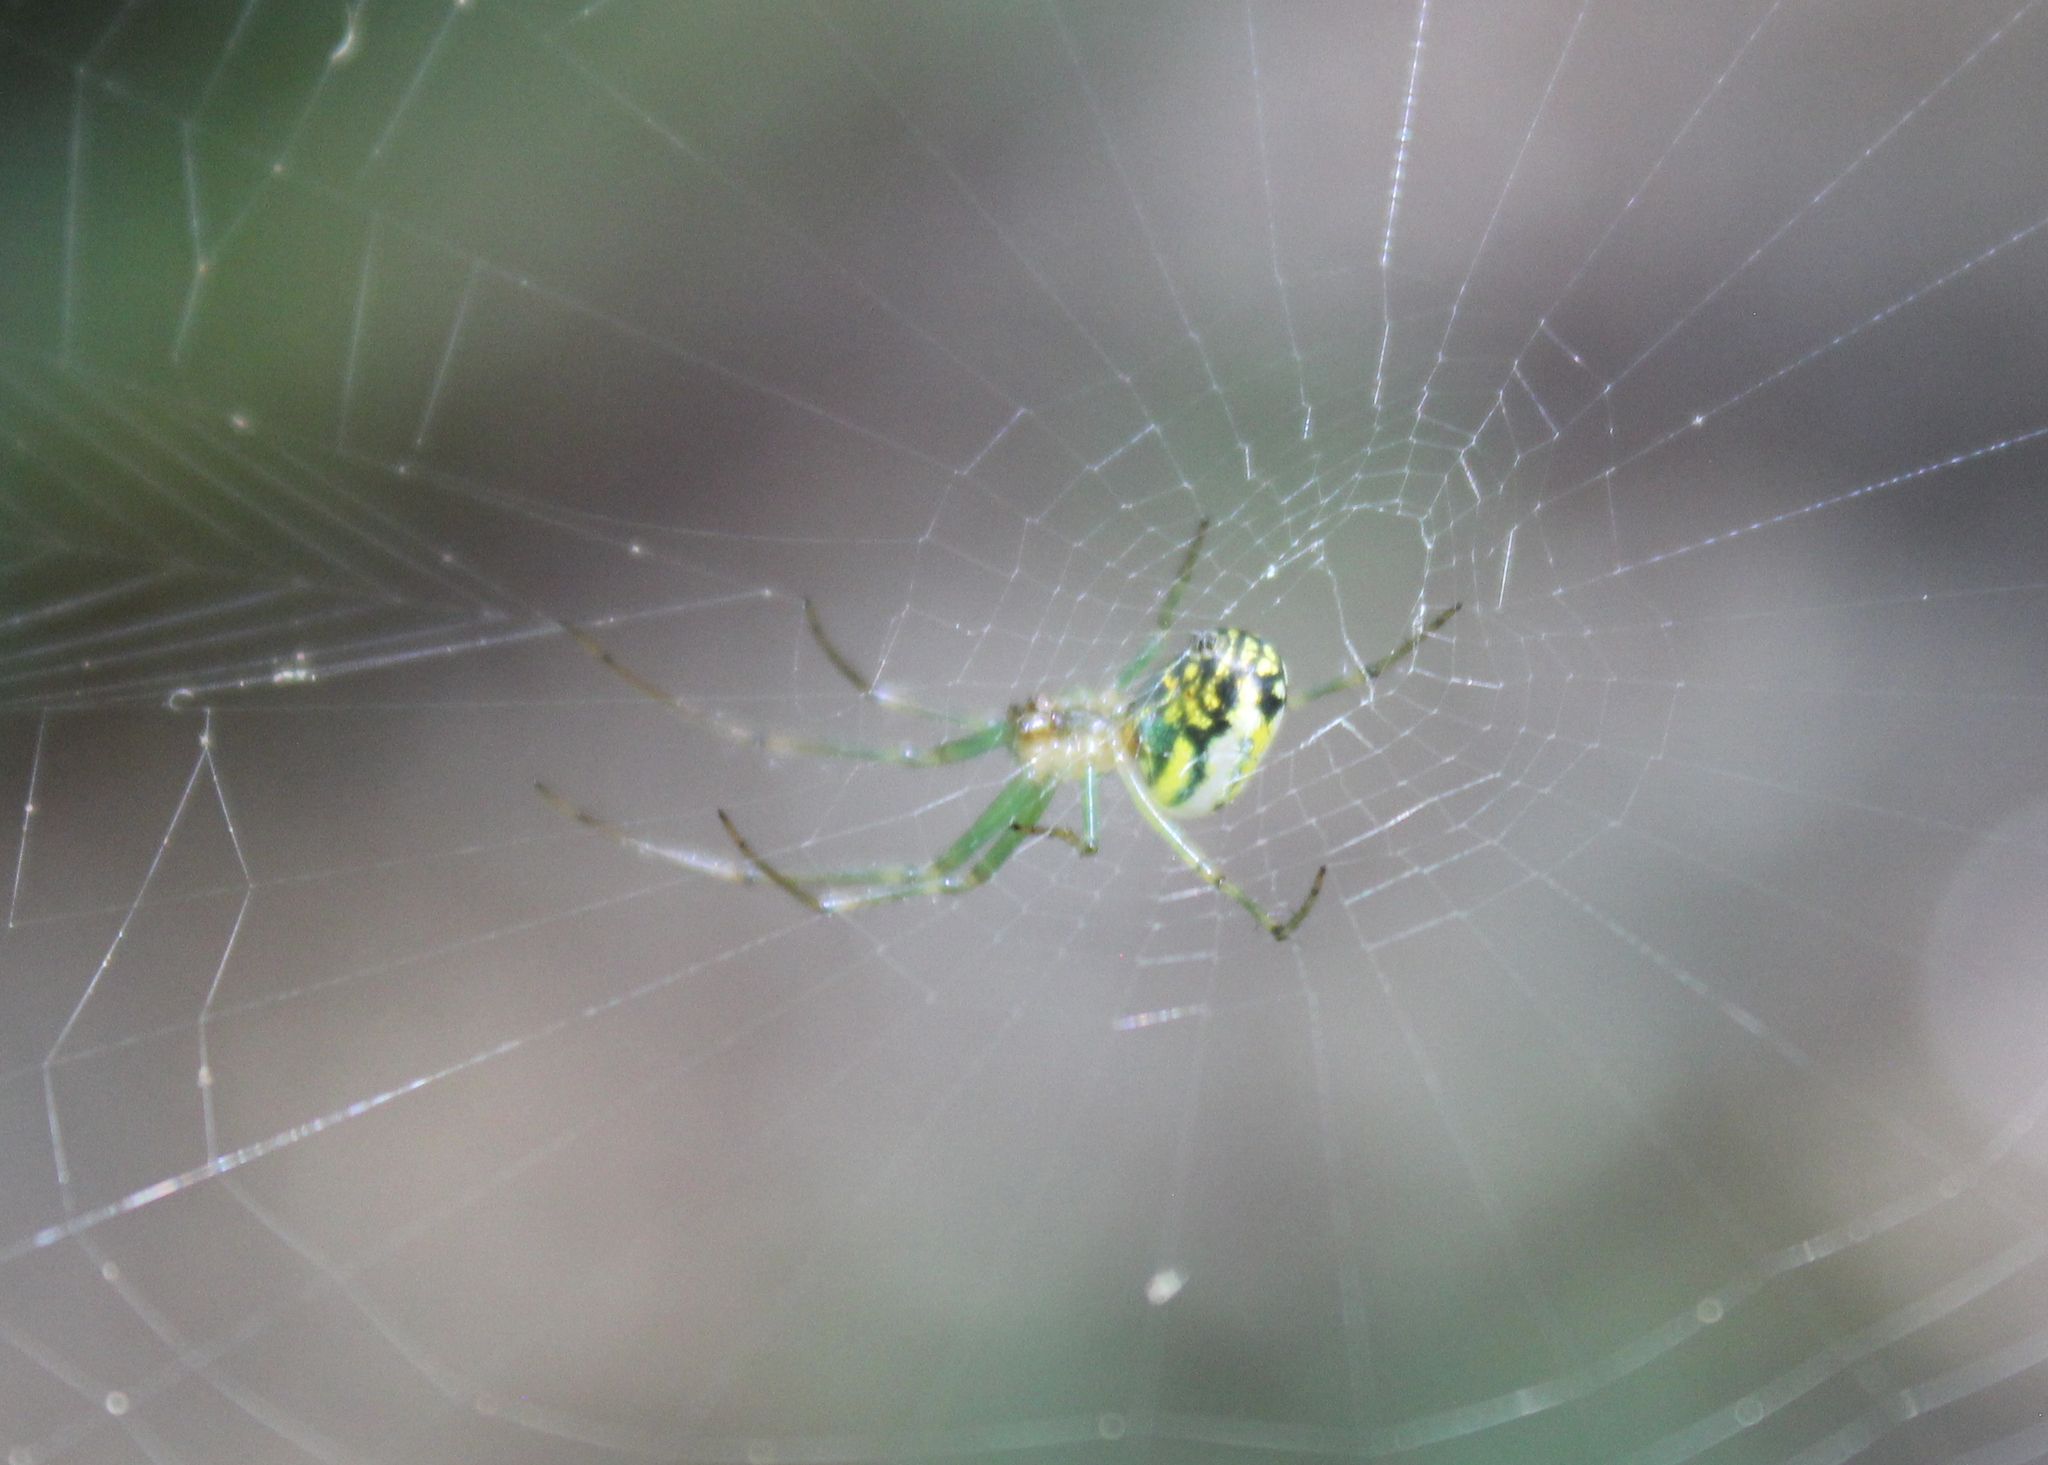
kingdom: Animalia
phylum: Arthropoda
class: Arachnida
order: Araneae
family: Tetragnathidae
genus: Leucauge
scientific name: Leucauge venusta
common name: Longjawed orb weavers
